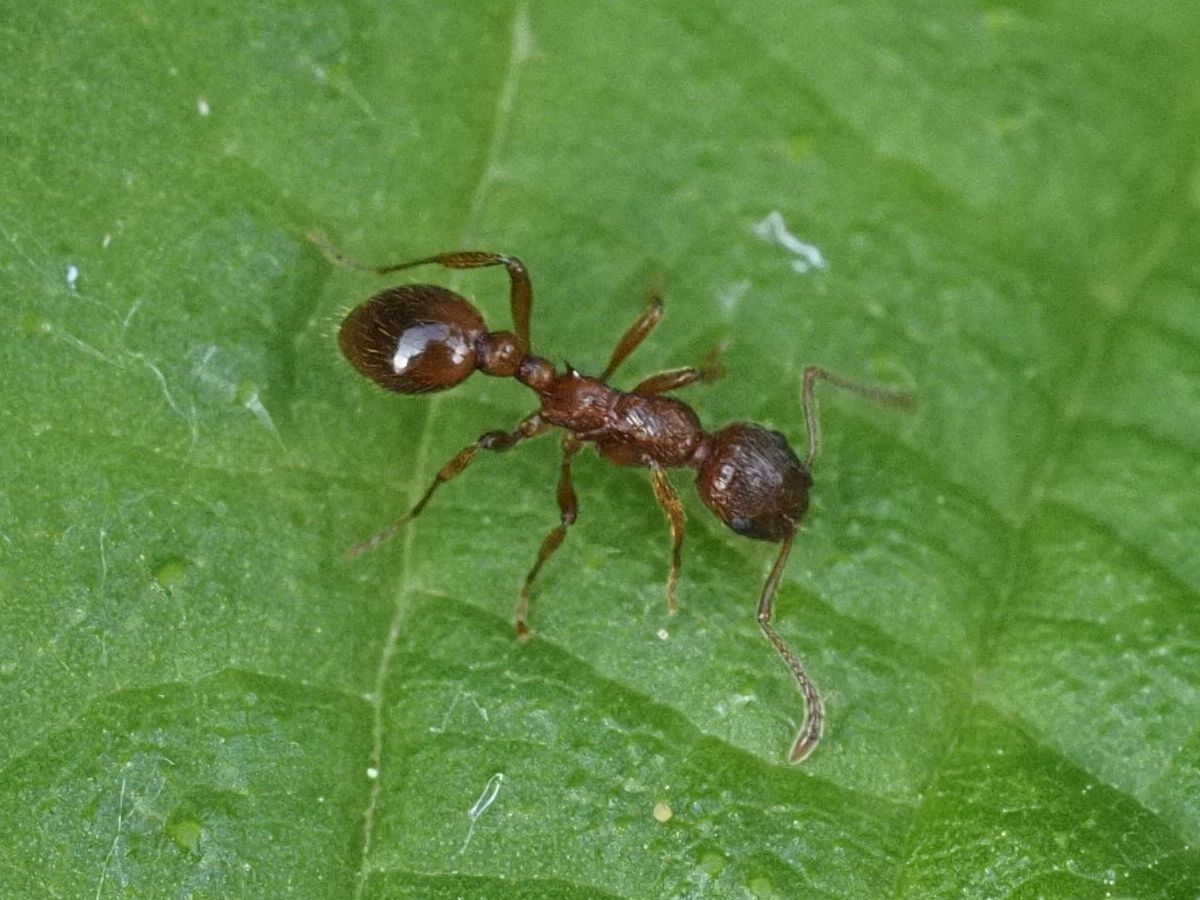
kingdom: Animalia
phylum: Arthropoda
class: Insecta
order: Hymenoptera
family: Formicidae
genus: Myrmica
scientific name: Myrmica rubra
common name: European fire ant
